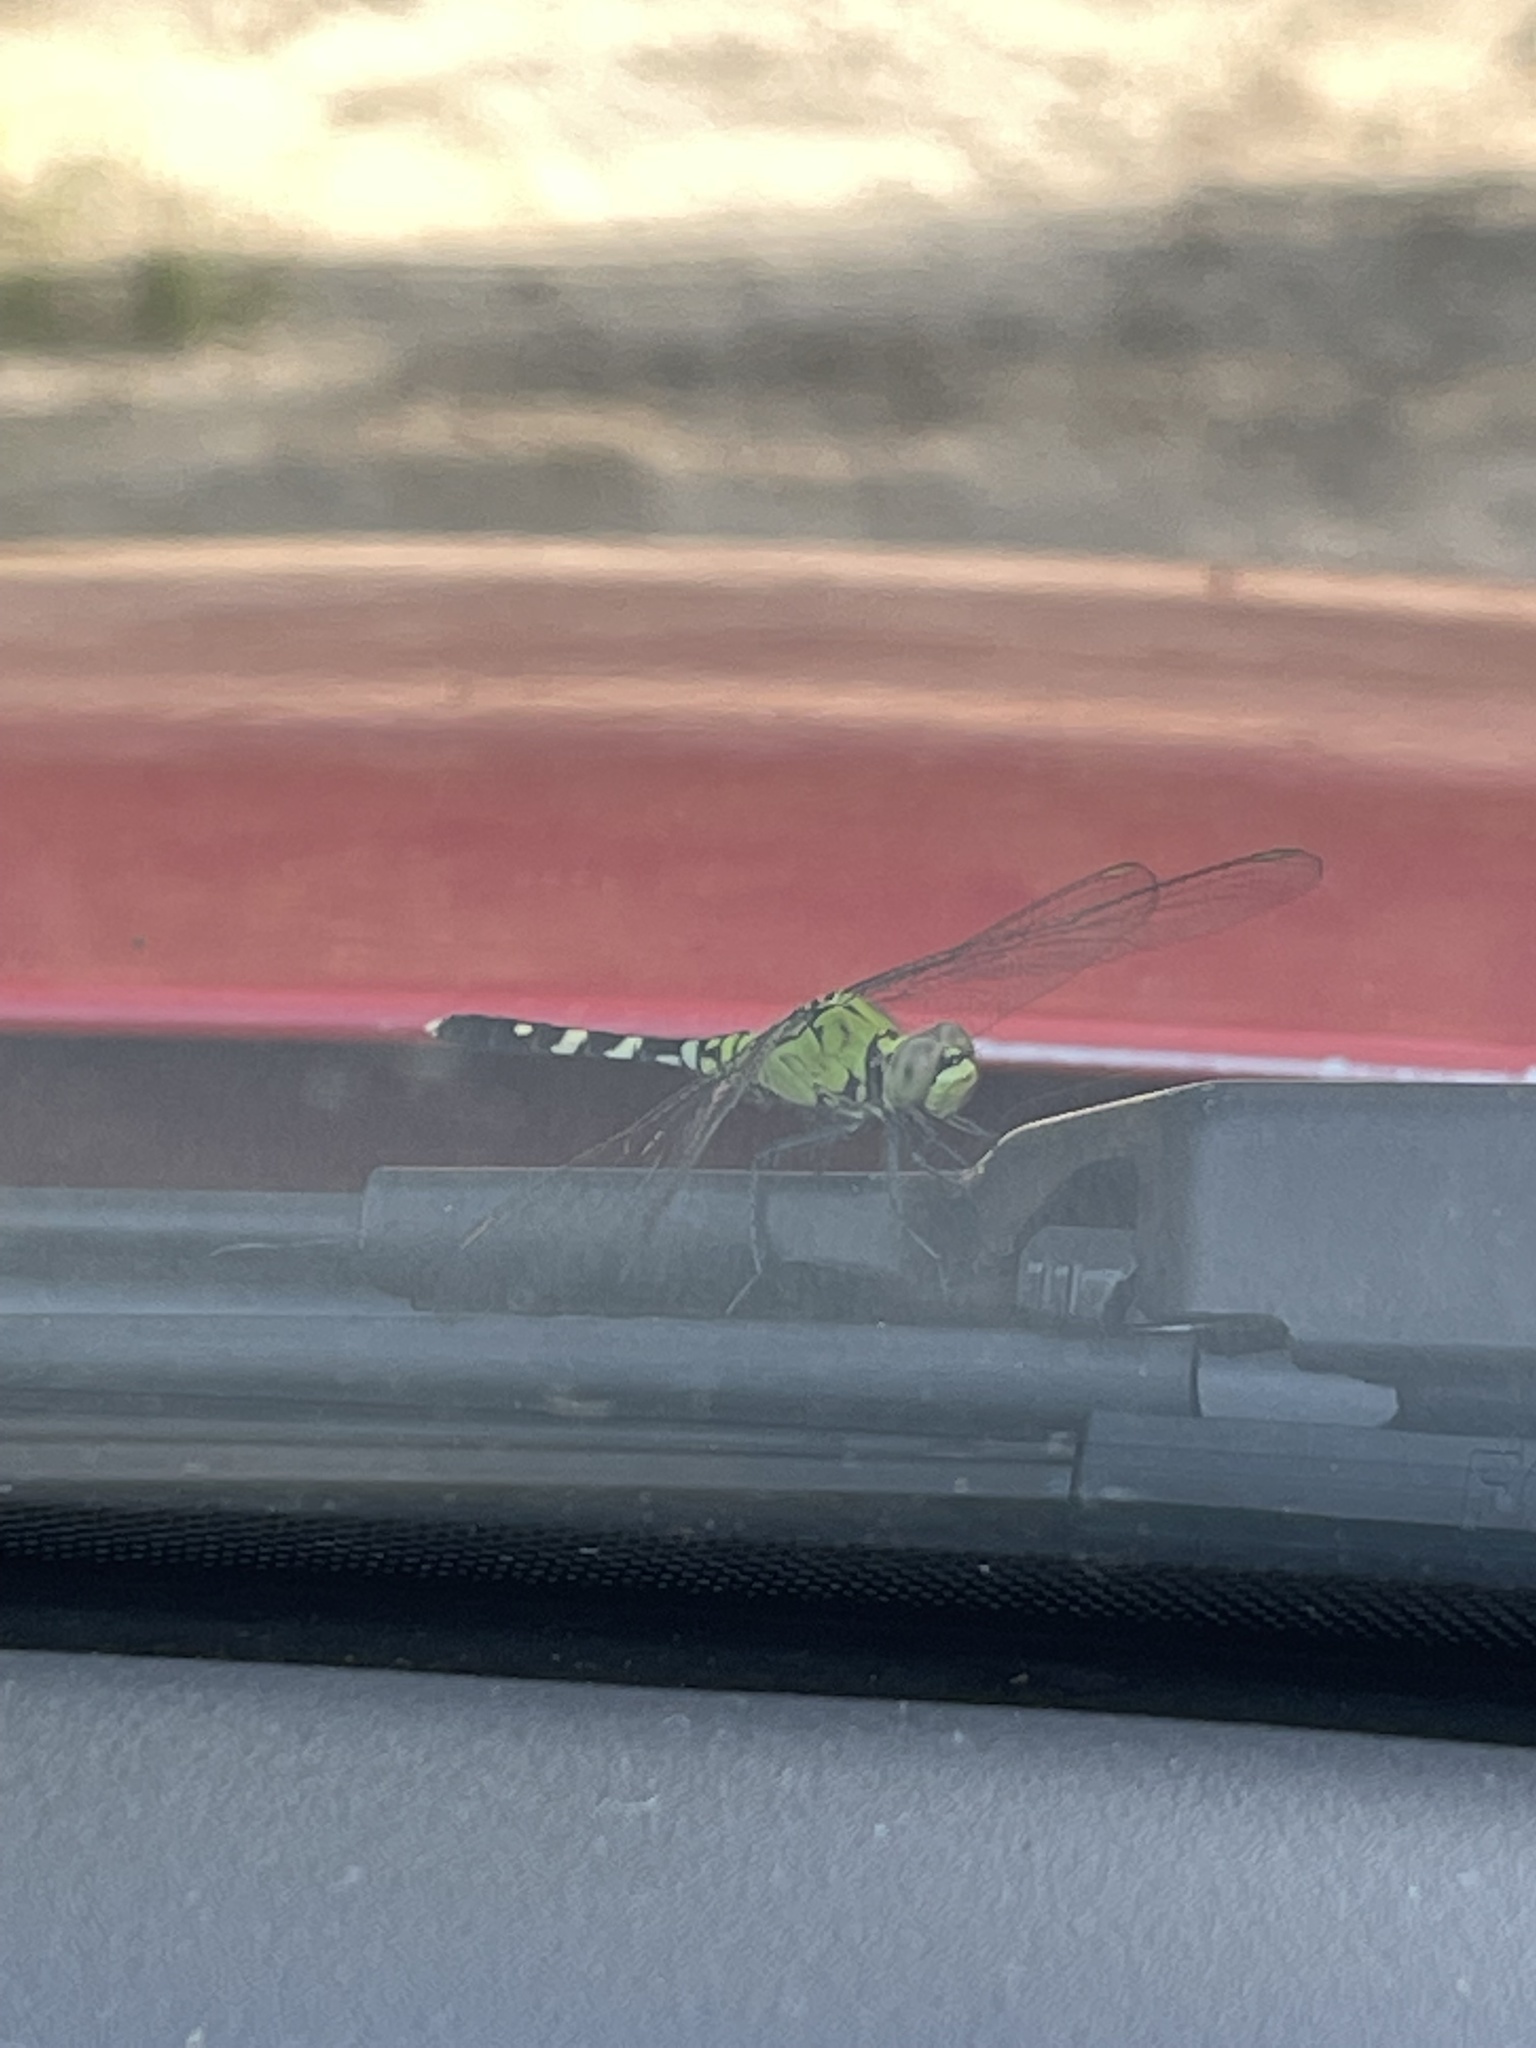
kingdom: Animalia
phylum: Arthropoda
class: Insecta
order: Odonata
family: Libellulidae
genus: Erythemis
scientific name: Erythemis simplicicollis
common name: Eastern pondhawk
